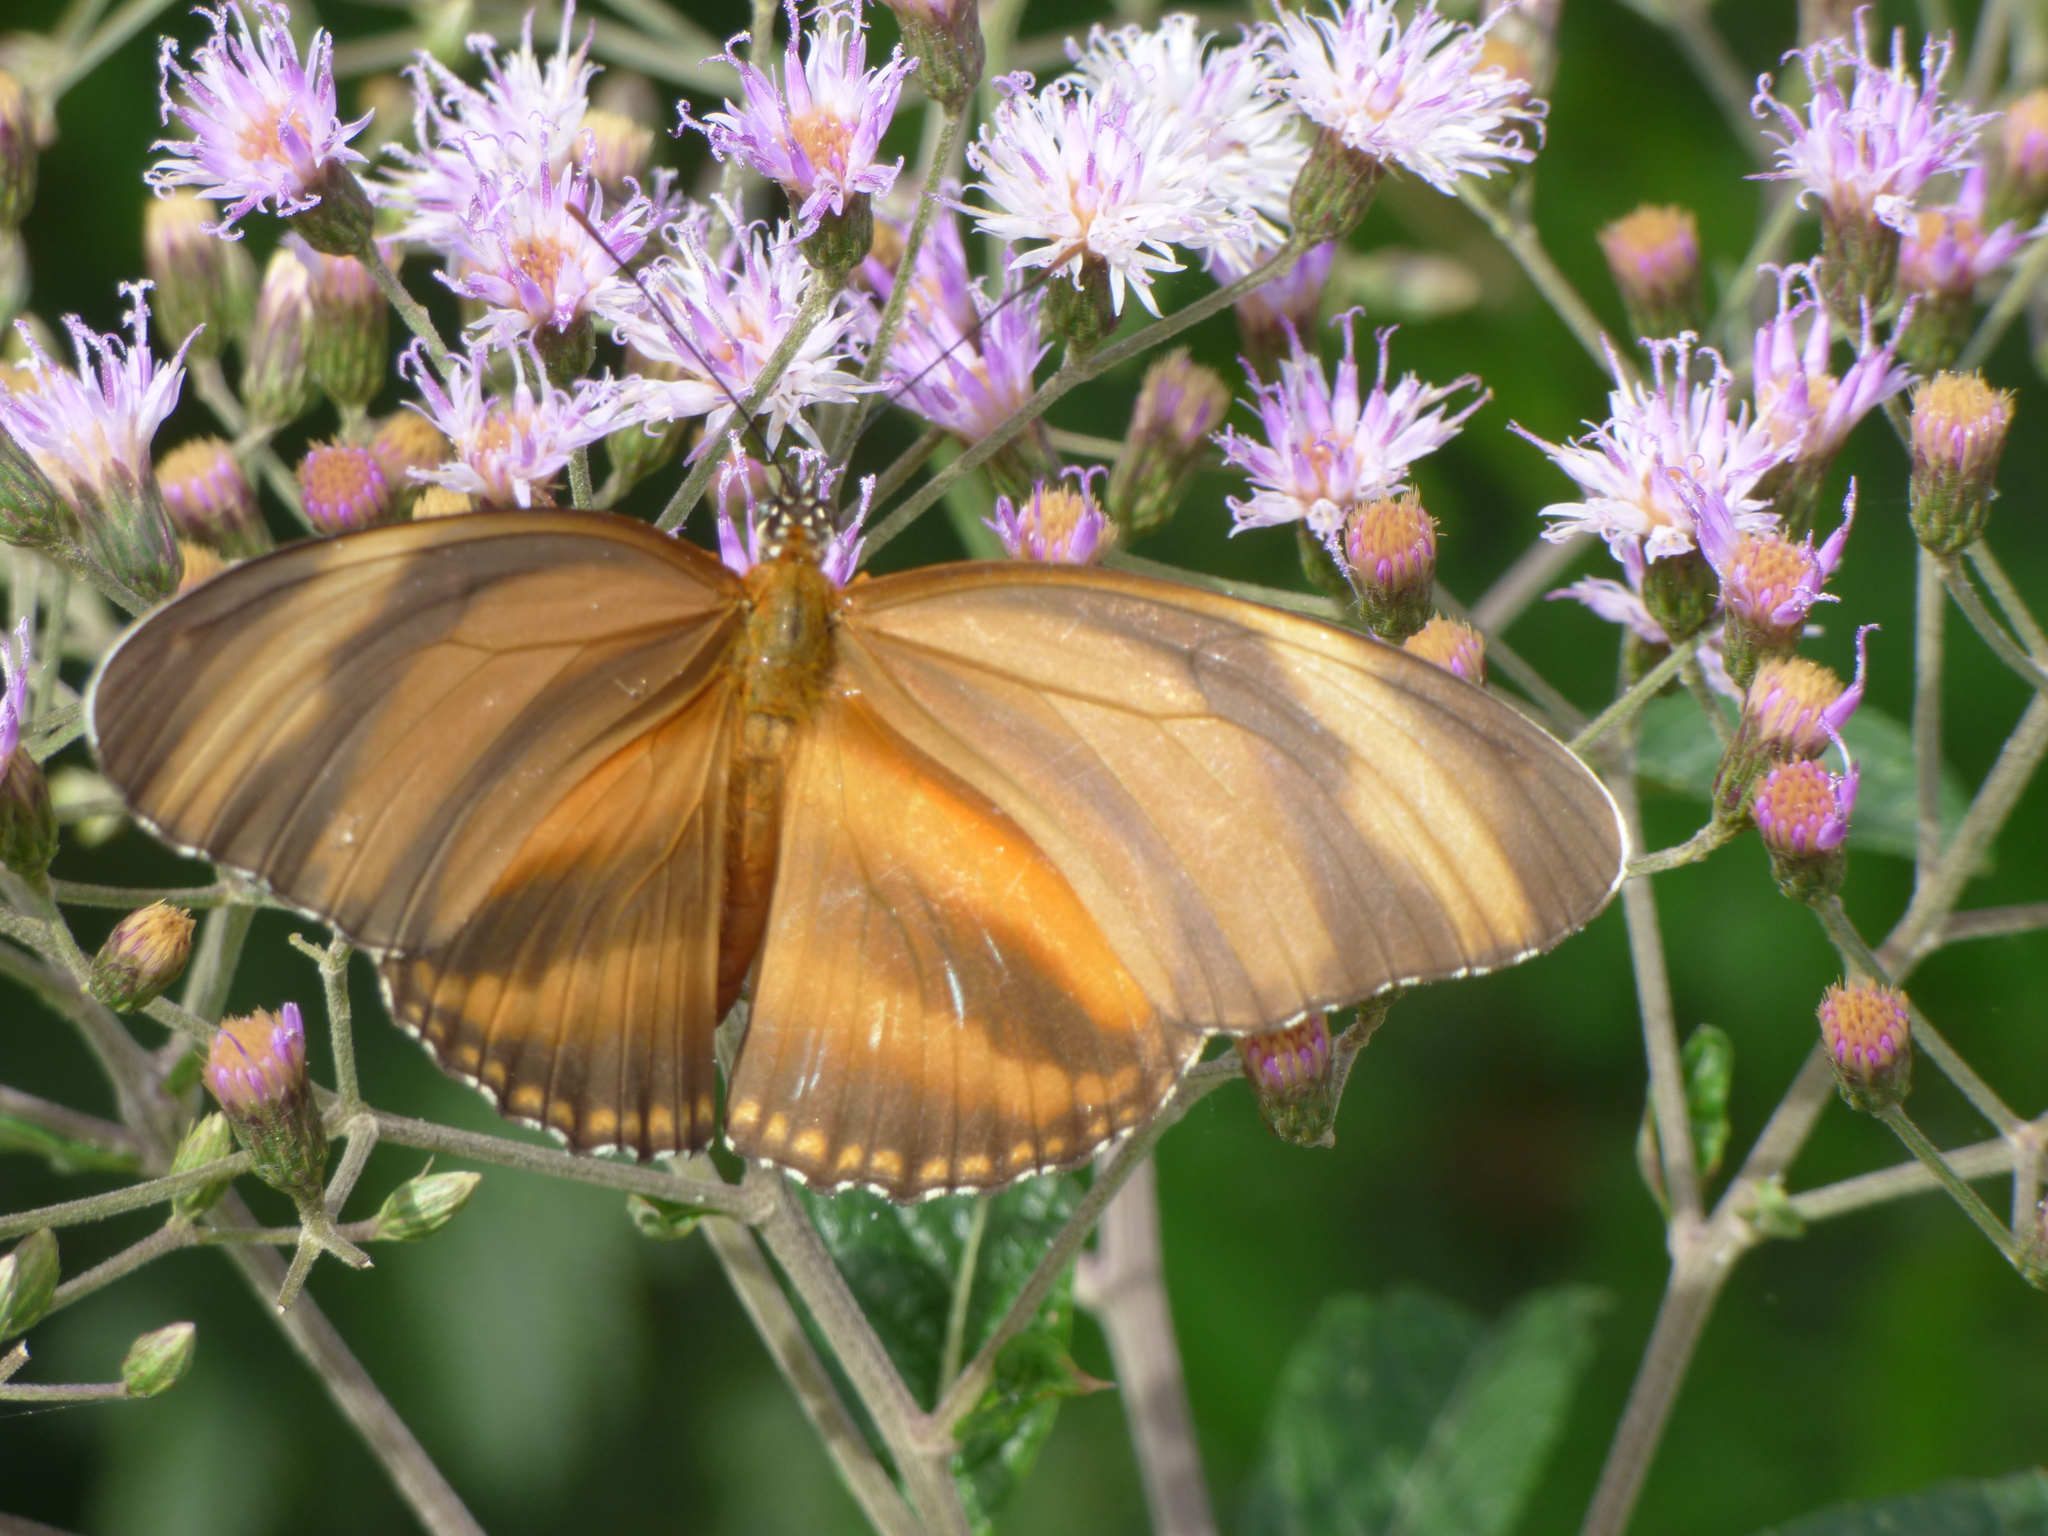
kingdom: Animalia
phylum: Arthropoda
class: Insecta
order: Lepidoptera
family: Nymphalidae
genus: Dryadula
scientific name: Dryadula phaetusa
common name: Banded orange heliconian
